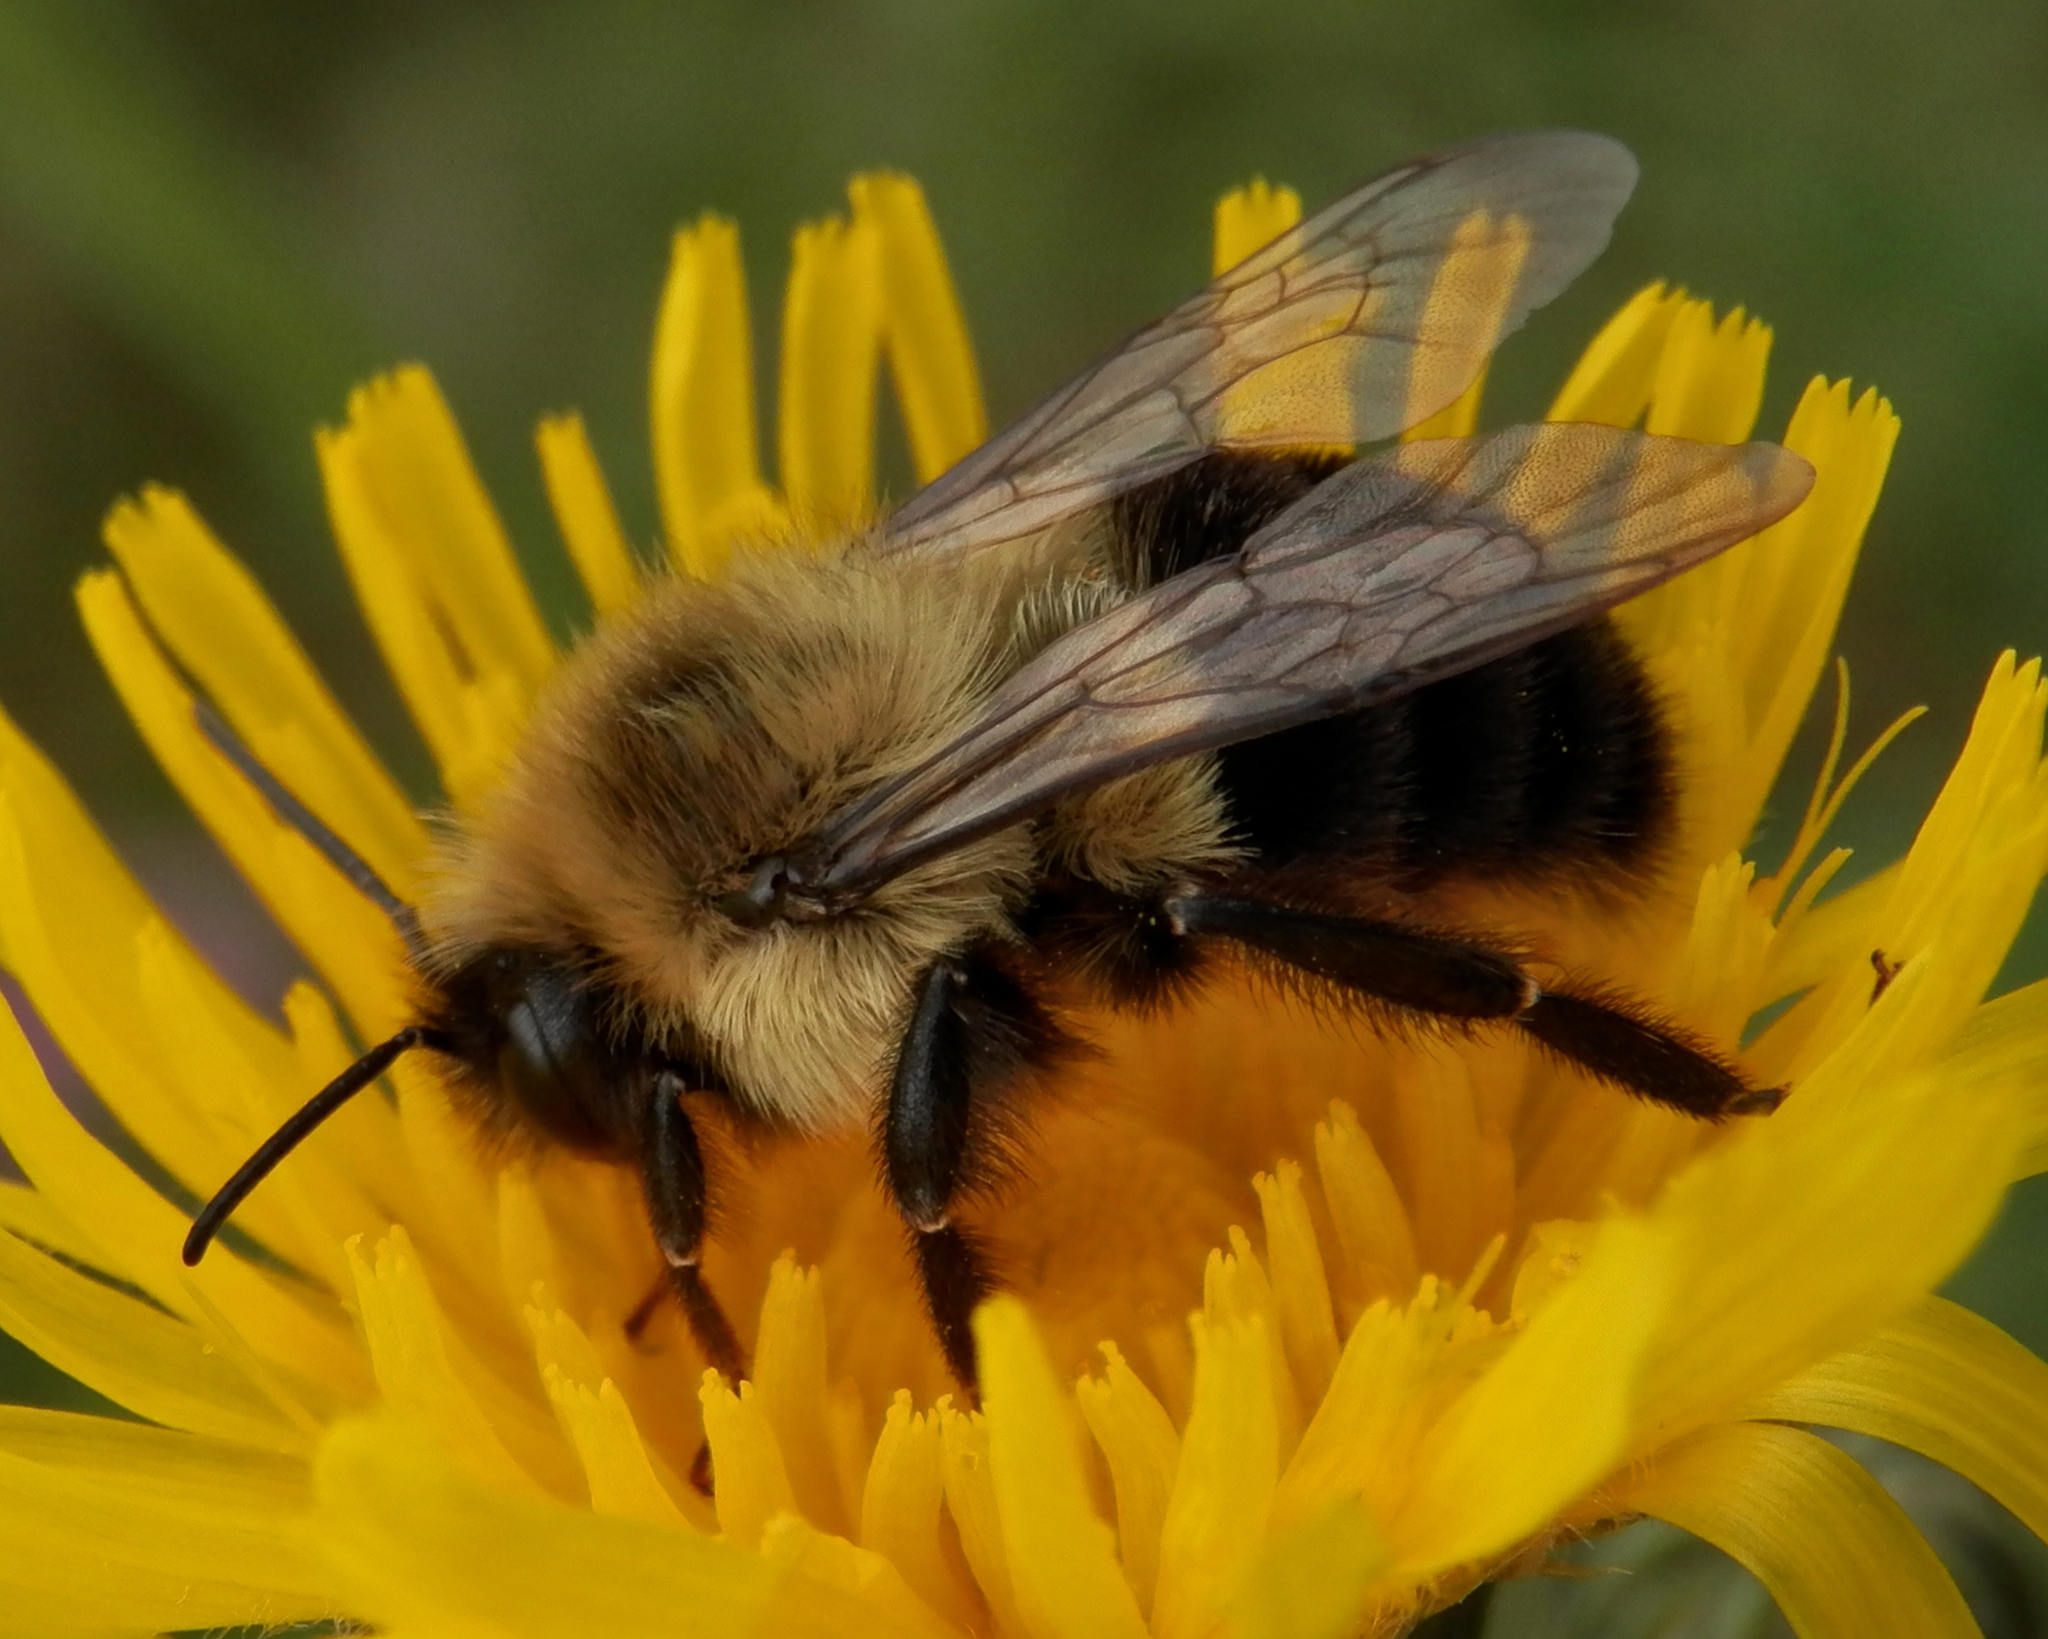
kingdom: Animalia
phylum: Arthropoda
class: Insecta
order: Hymenoptera
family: Apidae
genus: Bombus
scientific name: Bombus impatiens
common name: Common eastern bumble bee
